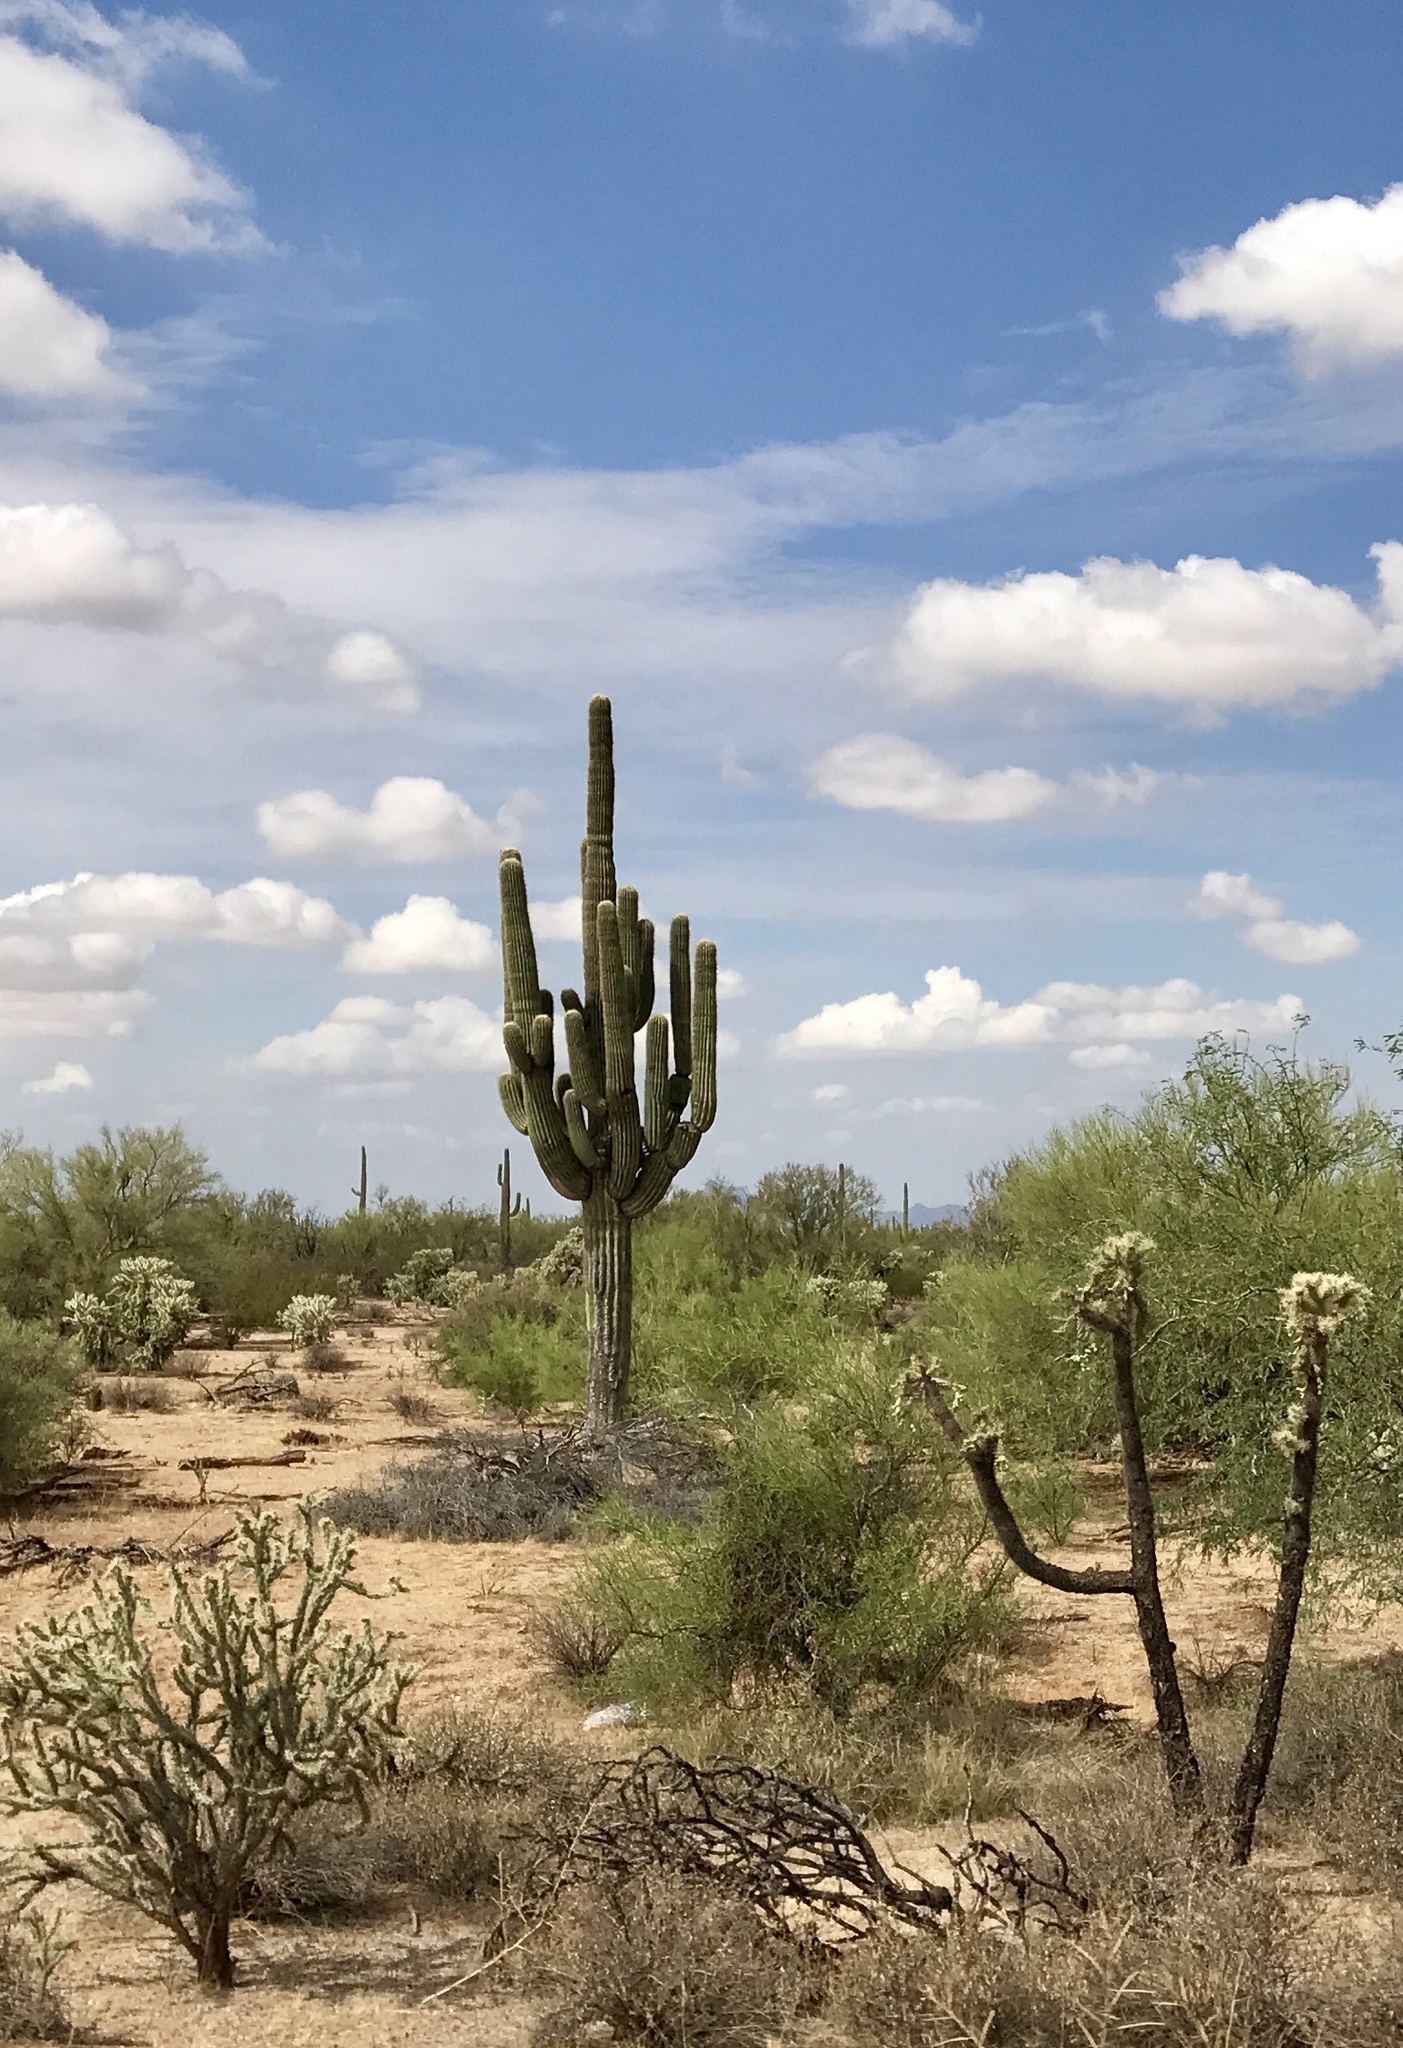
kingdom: Plantae
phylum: Tracheophyta
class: Magnoliopsida
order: Caryophyllales
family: Cactaceae
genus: Carnegiea
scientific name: Carnegiea gigantea
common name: Saguaro
